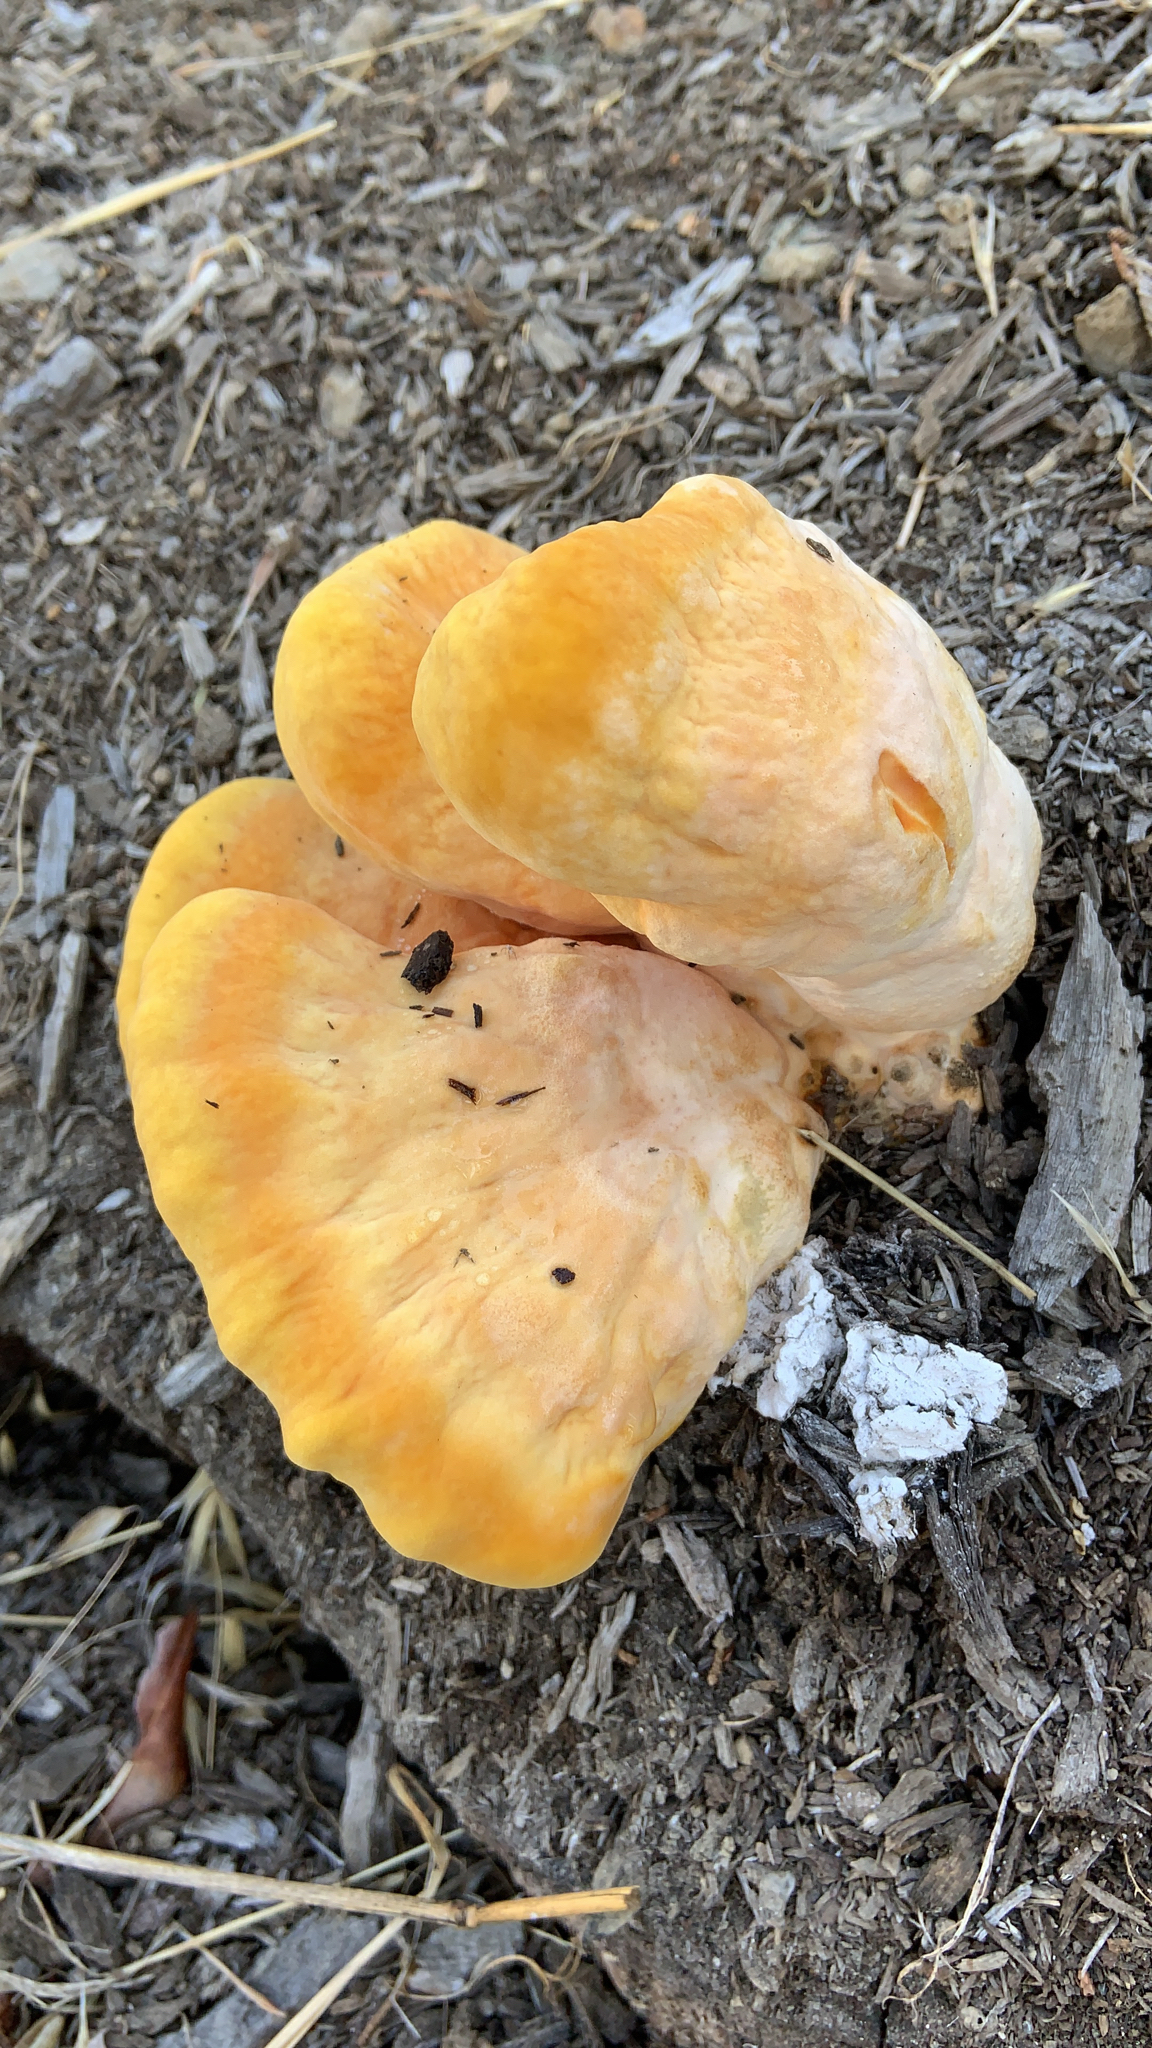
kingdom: Fungi
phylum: Basidiomycota
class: Agaricomycetes
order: Polyporales
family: Laetiporaceae
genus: Laetiporus
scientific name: Laetiporus gilbertsonii
